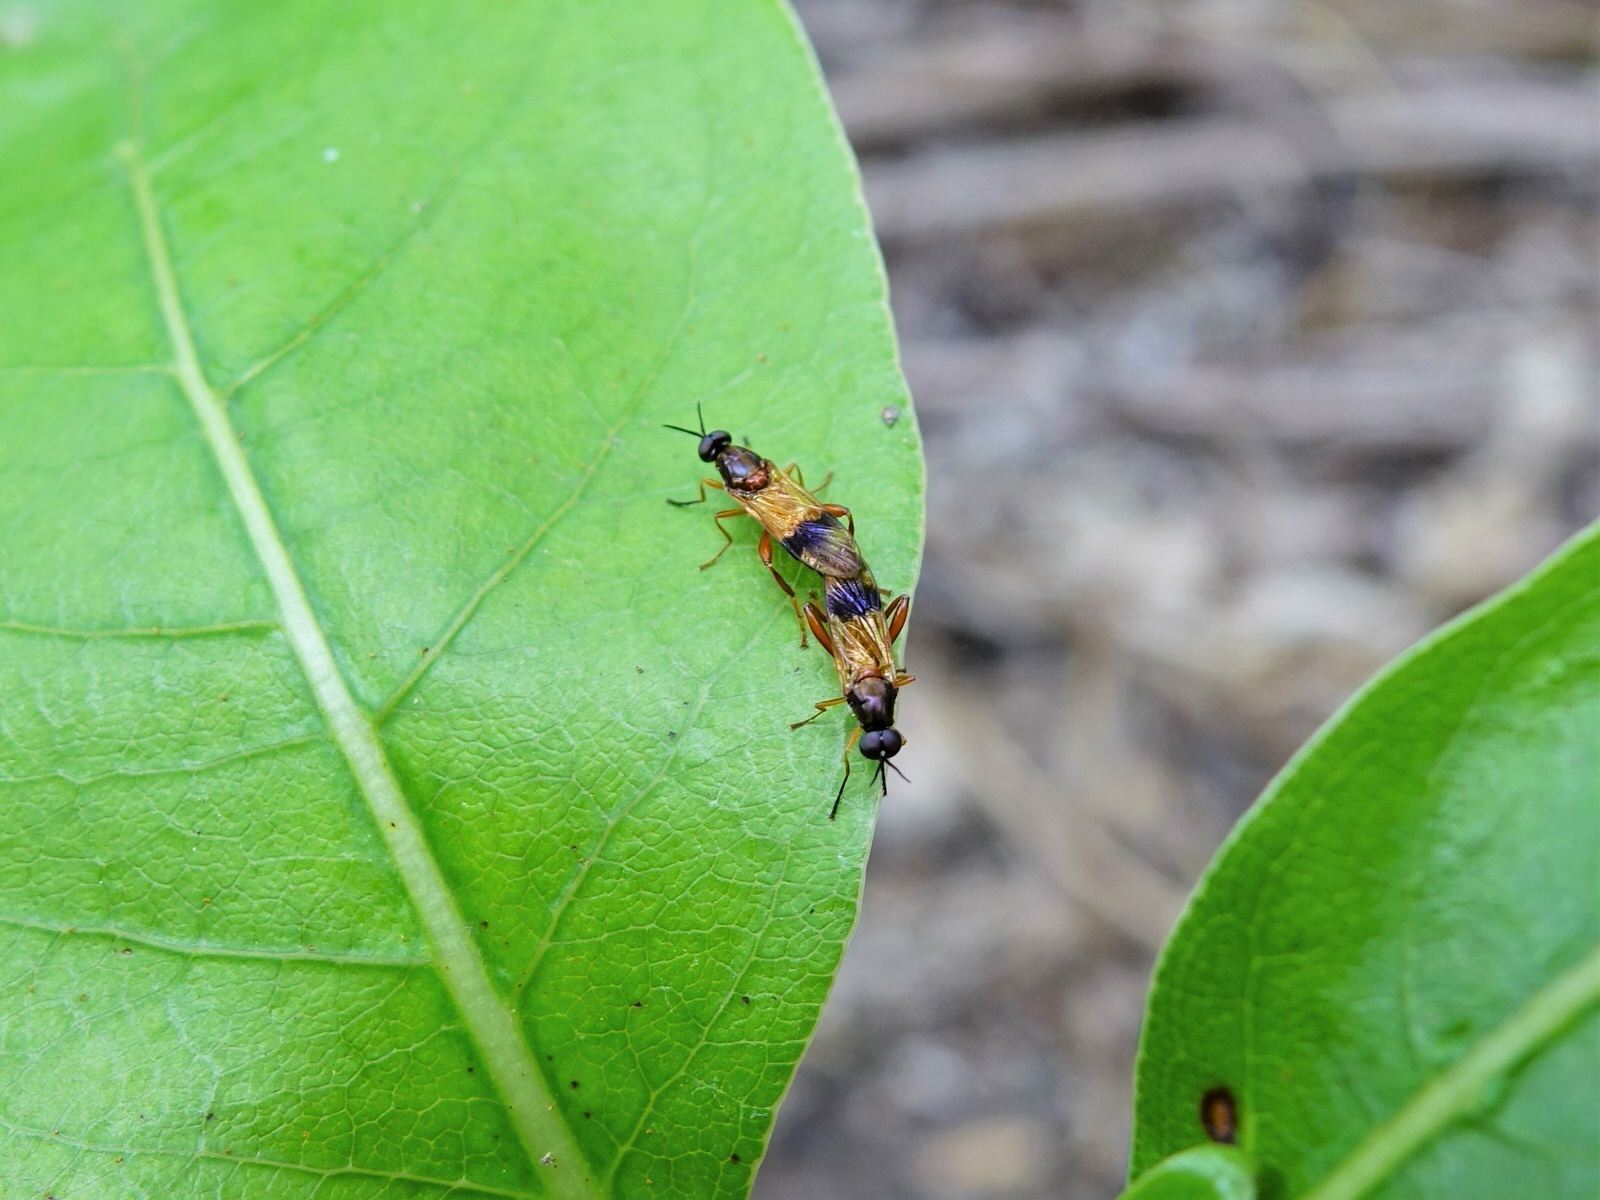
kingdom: Animalia
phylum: Arthropoda
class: Insecta
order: Diptera
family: Stratiomyidae
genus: Benhamyia
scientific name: Benhamyia apicalis
